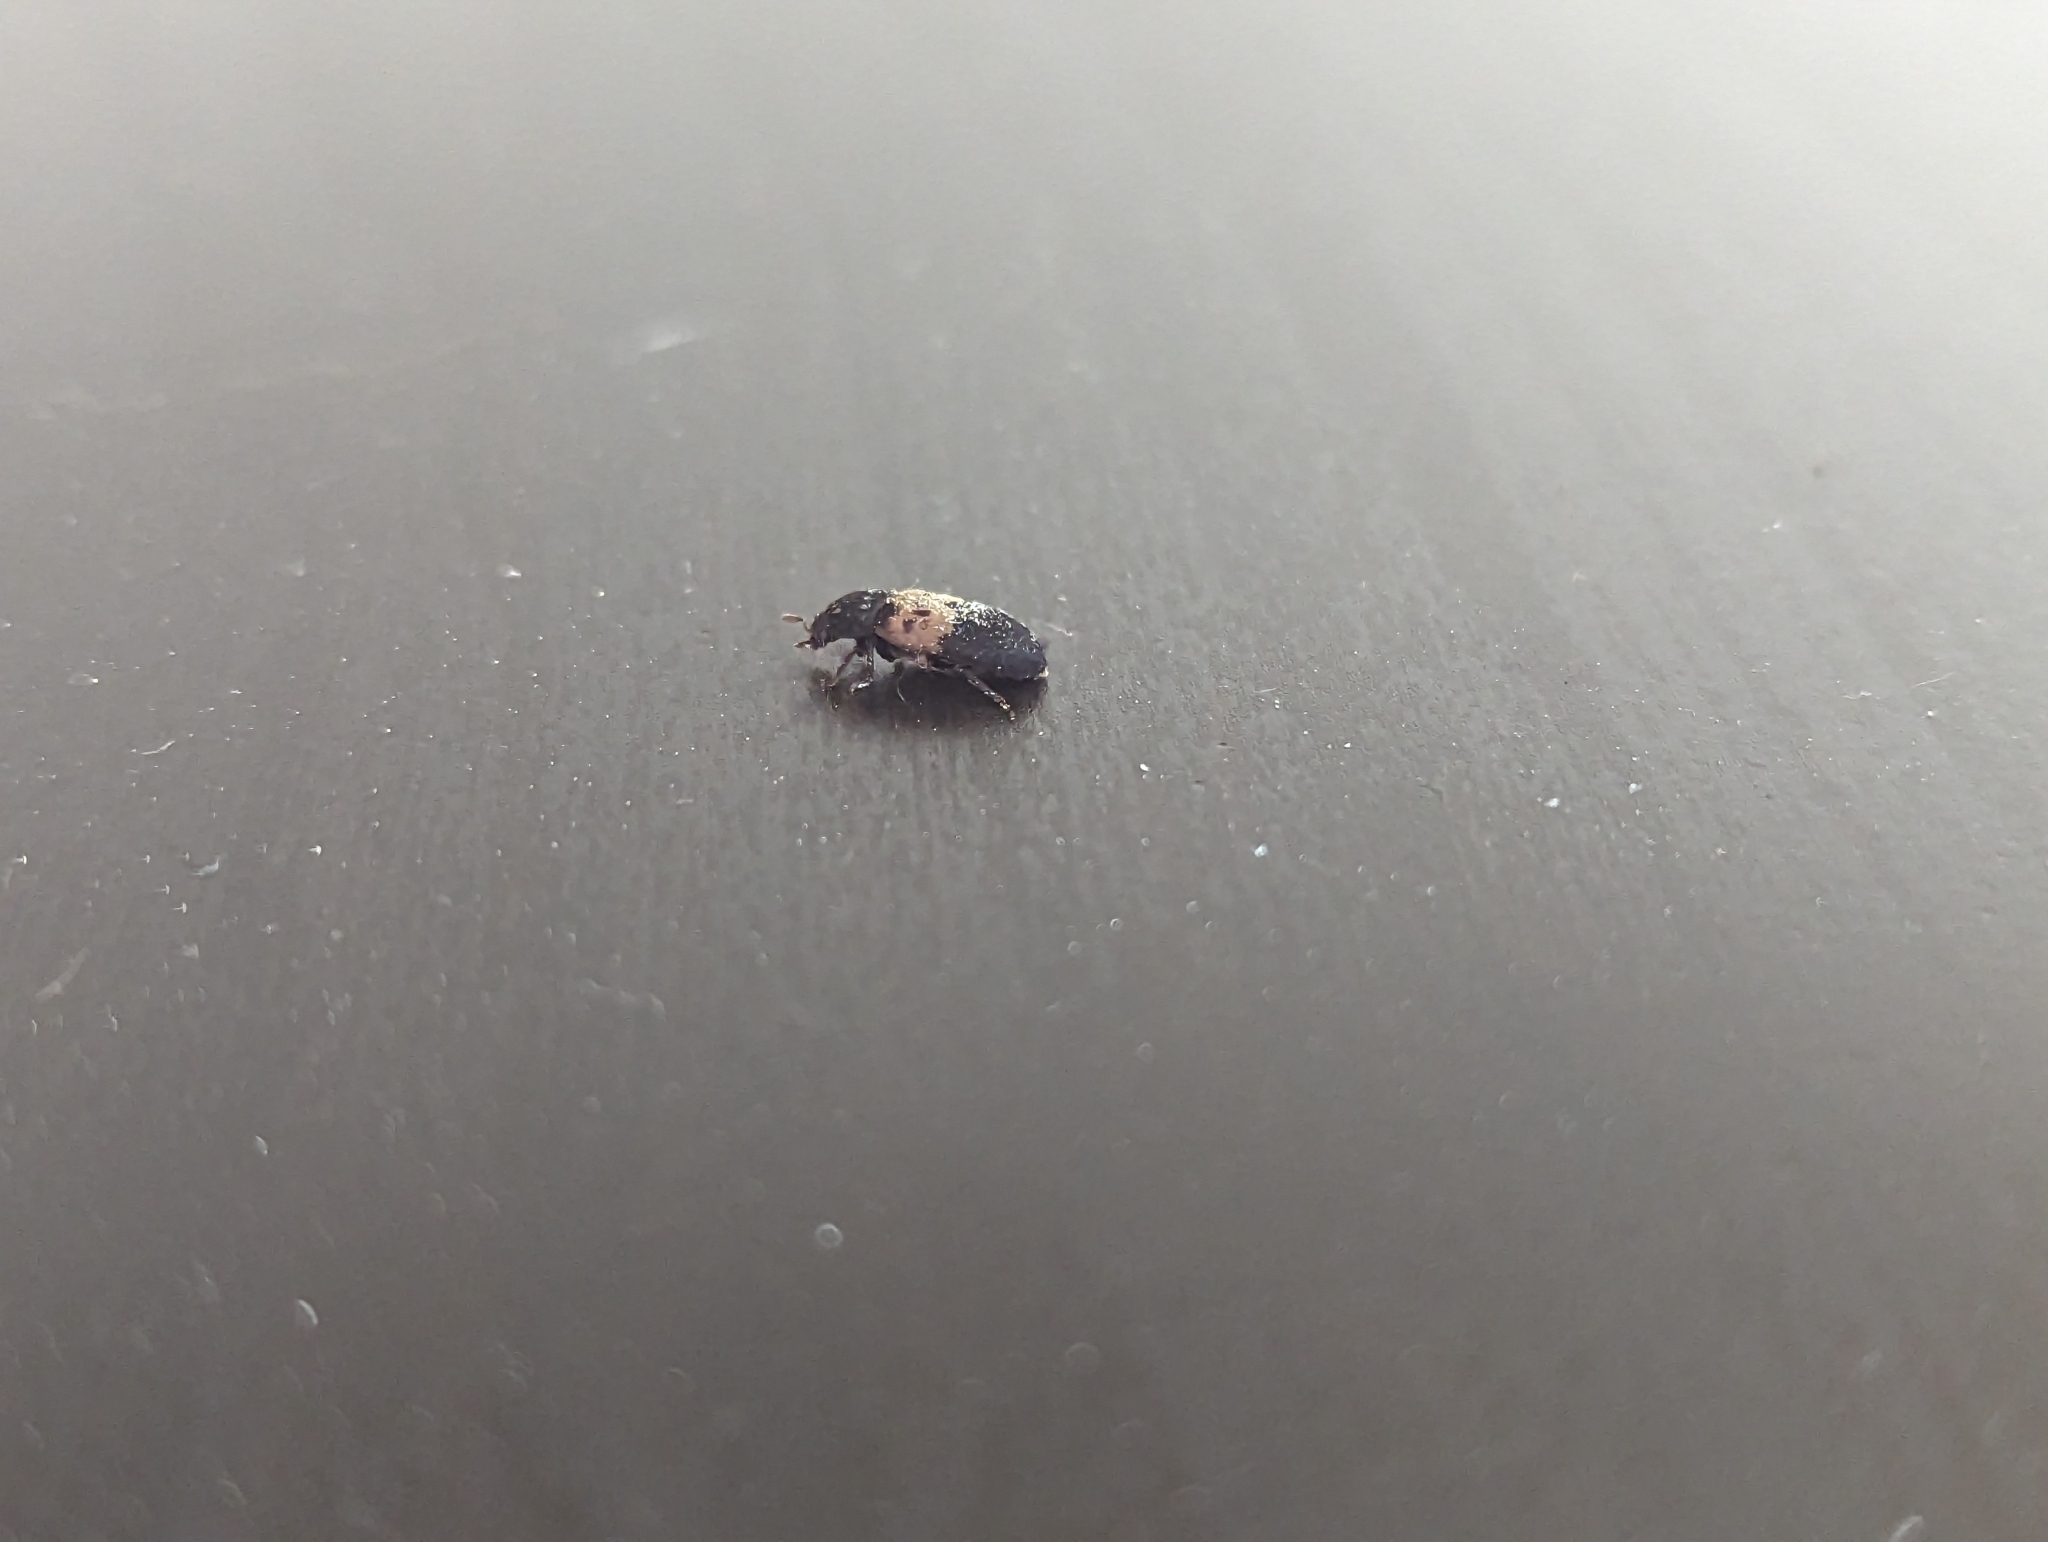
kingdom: Animalia
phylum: Arthropoda
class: Insecta
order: Coleoptera
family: Dermestidae
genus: Dermestes
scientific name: Dermestes lardarius
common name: Larder beetle
